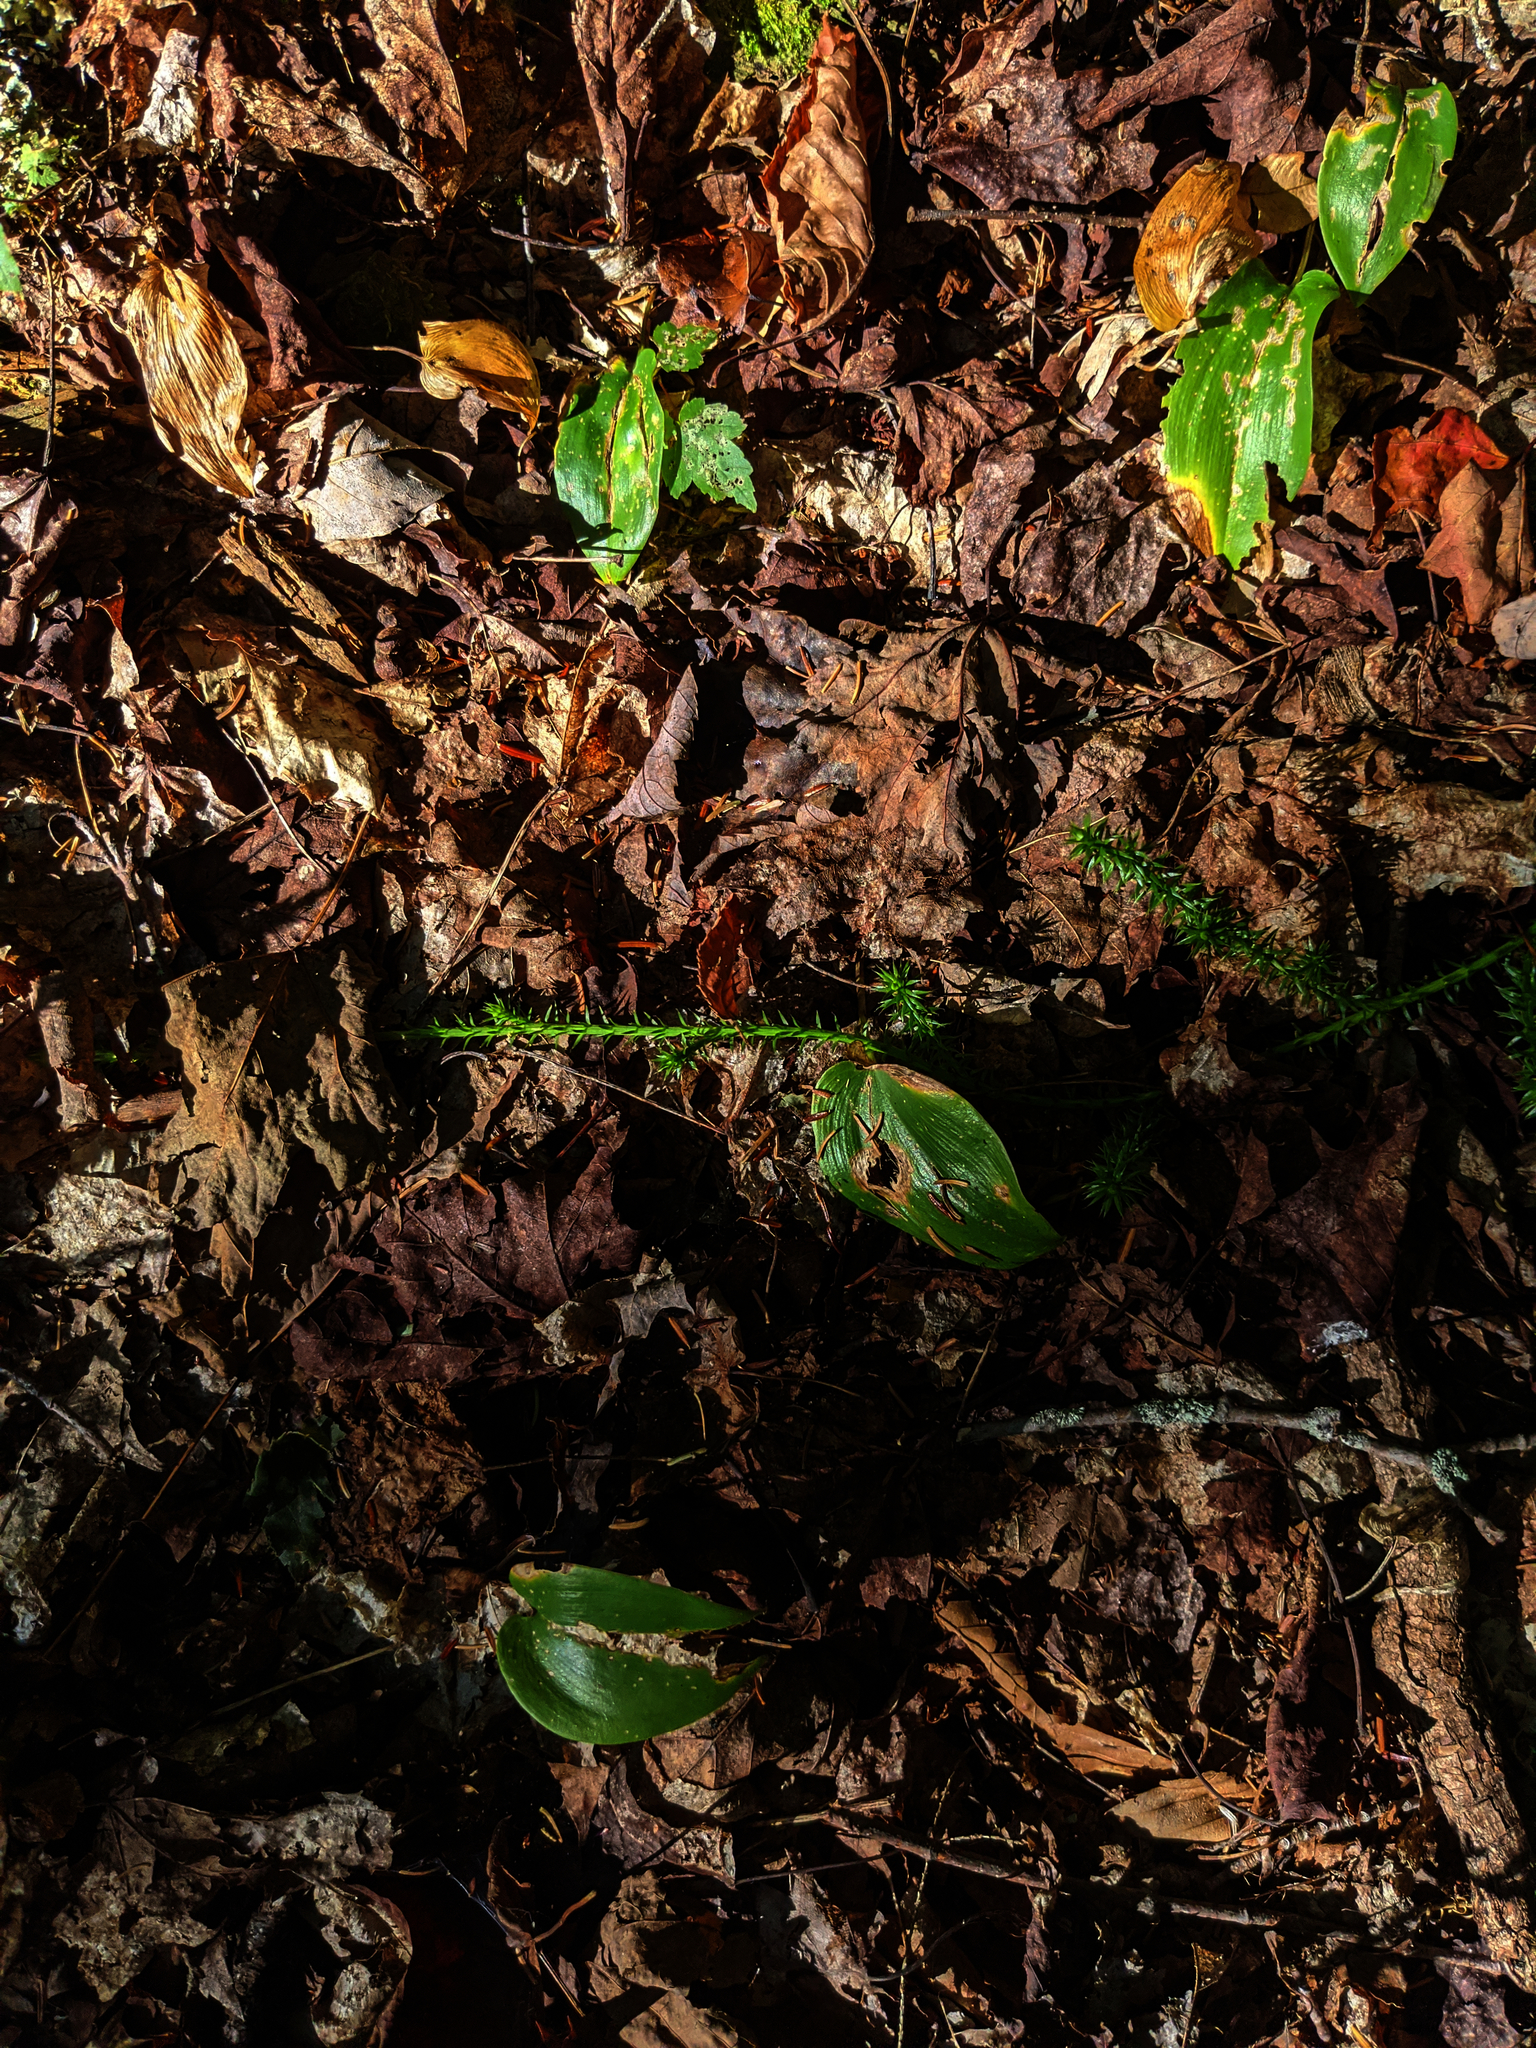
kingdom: Plantae
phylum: Tracheophyta
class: Liliopsida
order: Asparagales
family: Asparagaceae
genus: Maianthemum
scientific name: Maianthemum canadense
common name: False lily-of-the-valley
